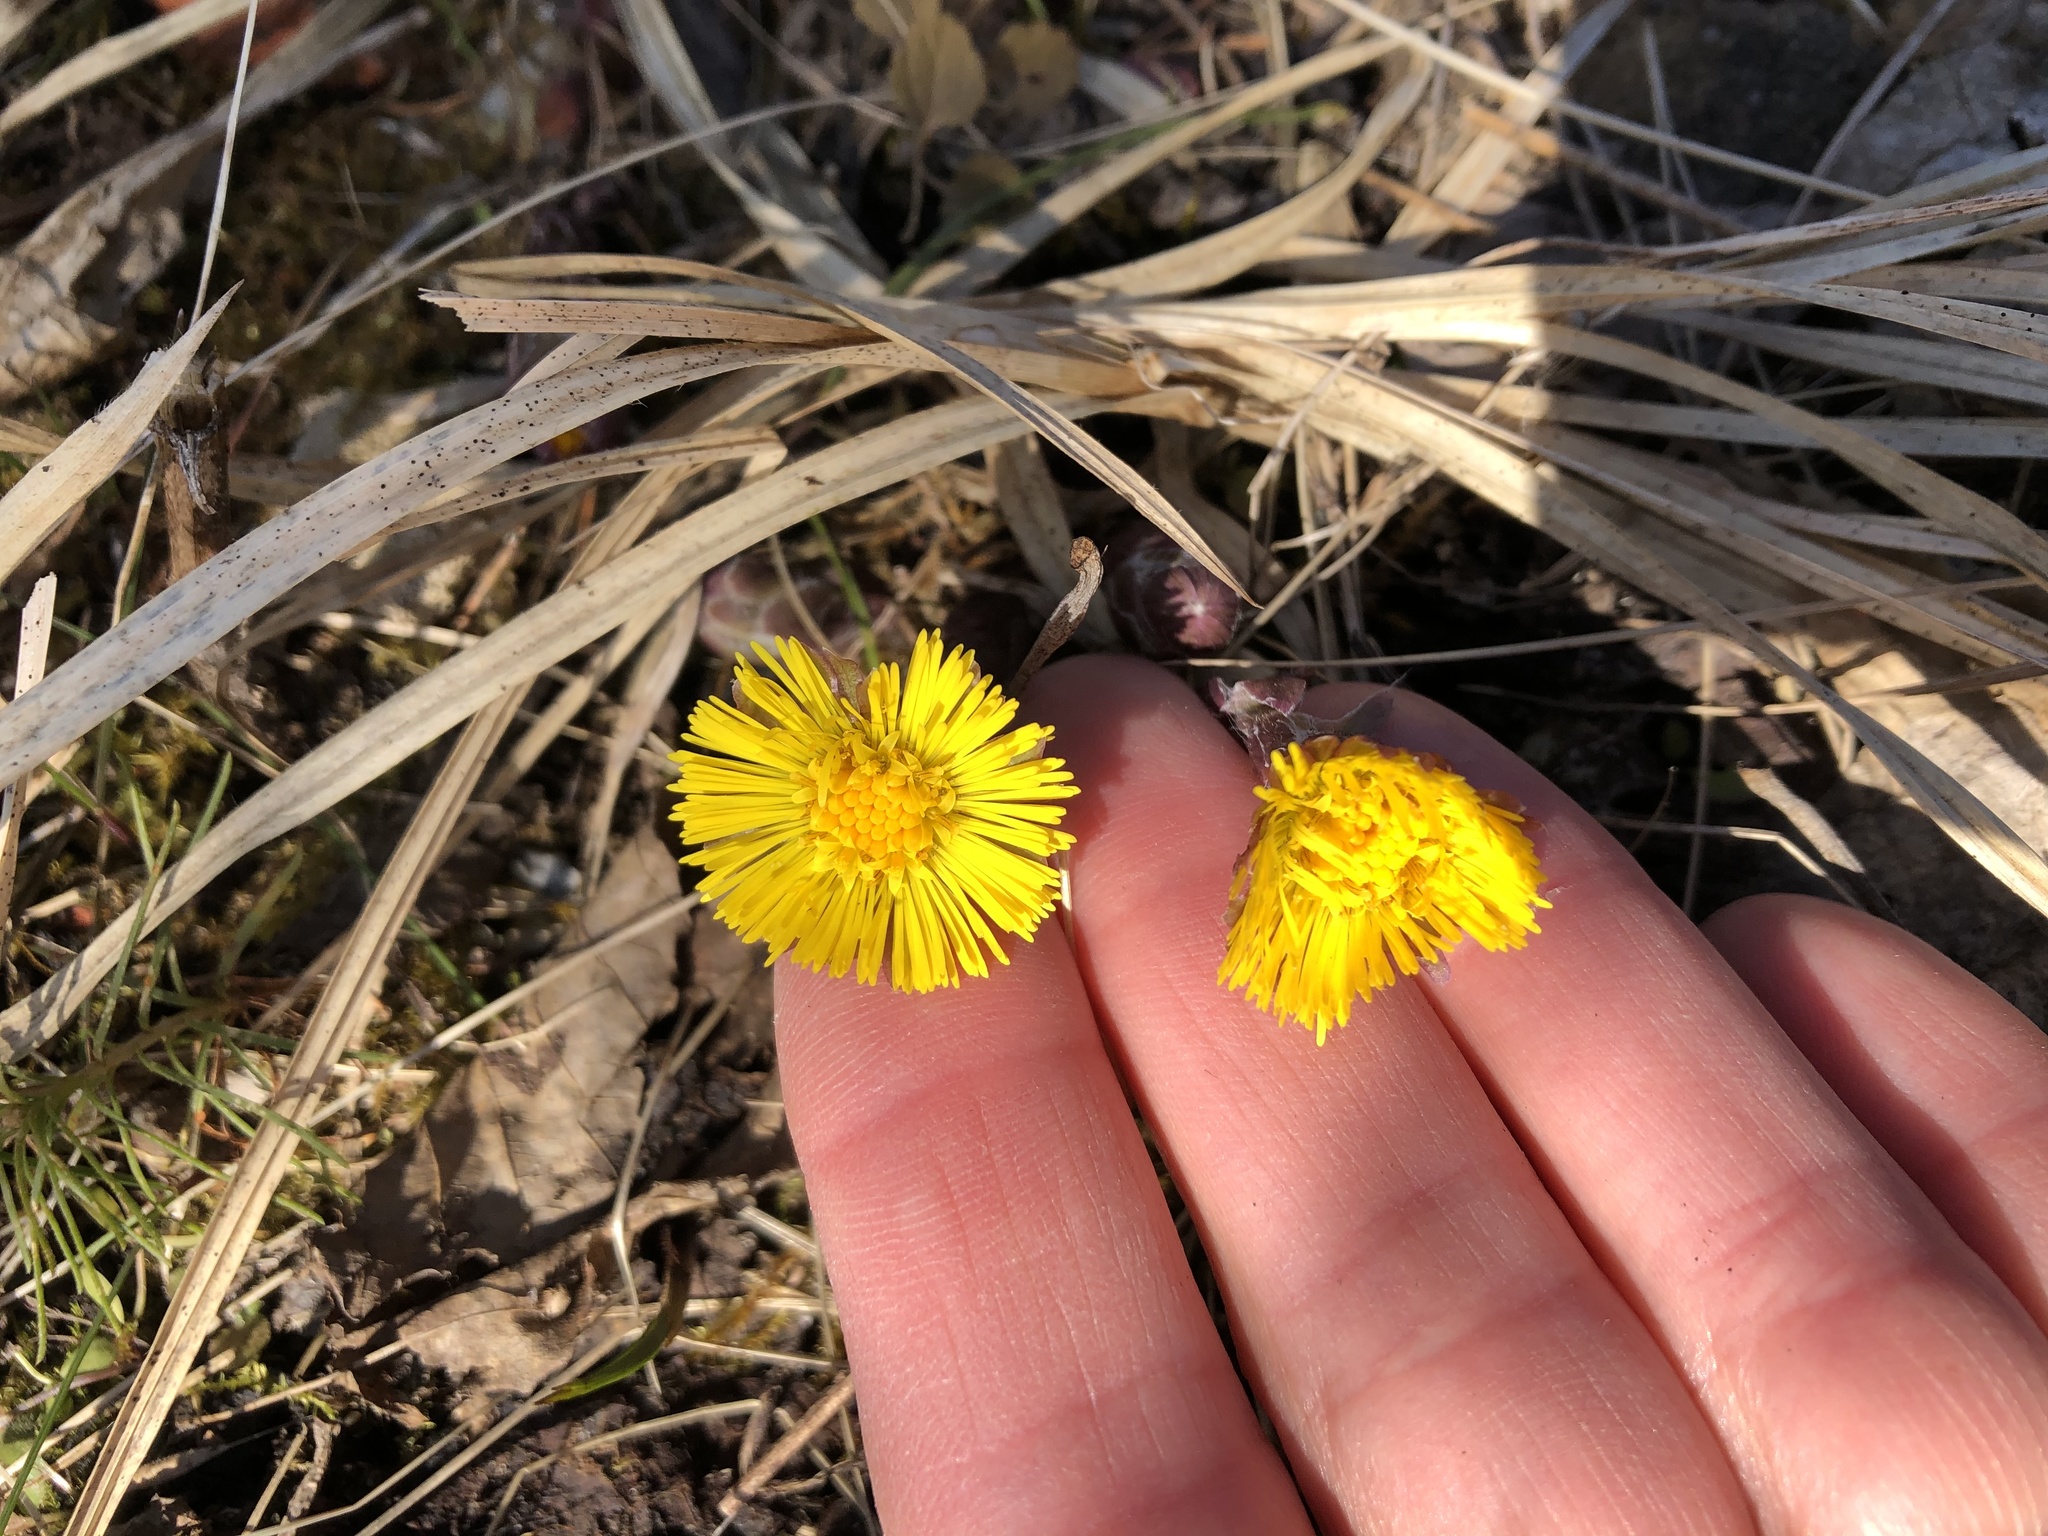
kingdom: Plantae
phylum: Tracheophyta
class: Magnoliopsida
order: Asterales
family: Asteraceae
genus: Tussilago
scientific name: Tussilago farfara
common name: Coltsfoot
